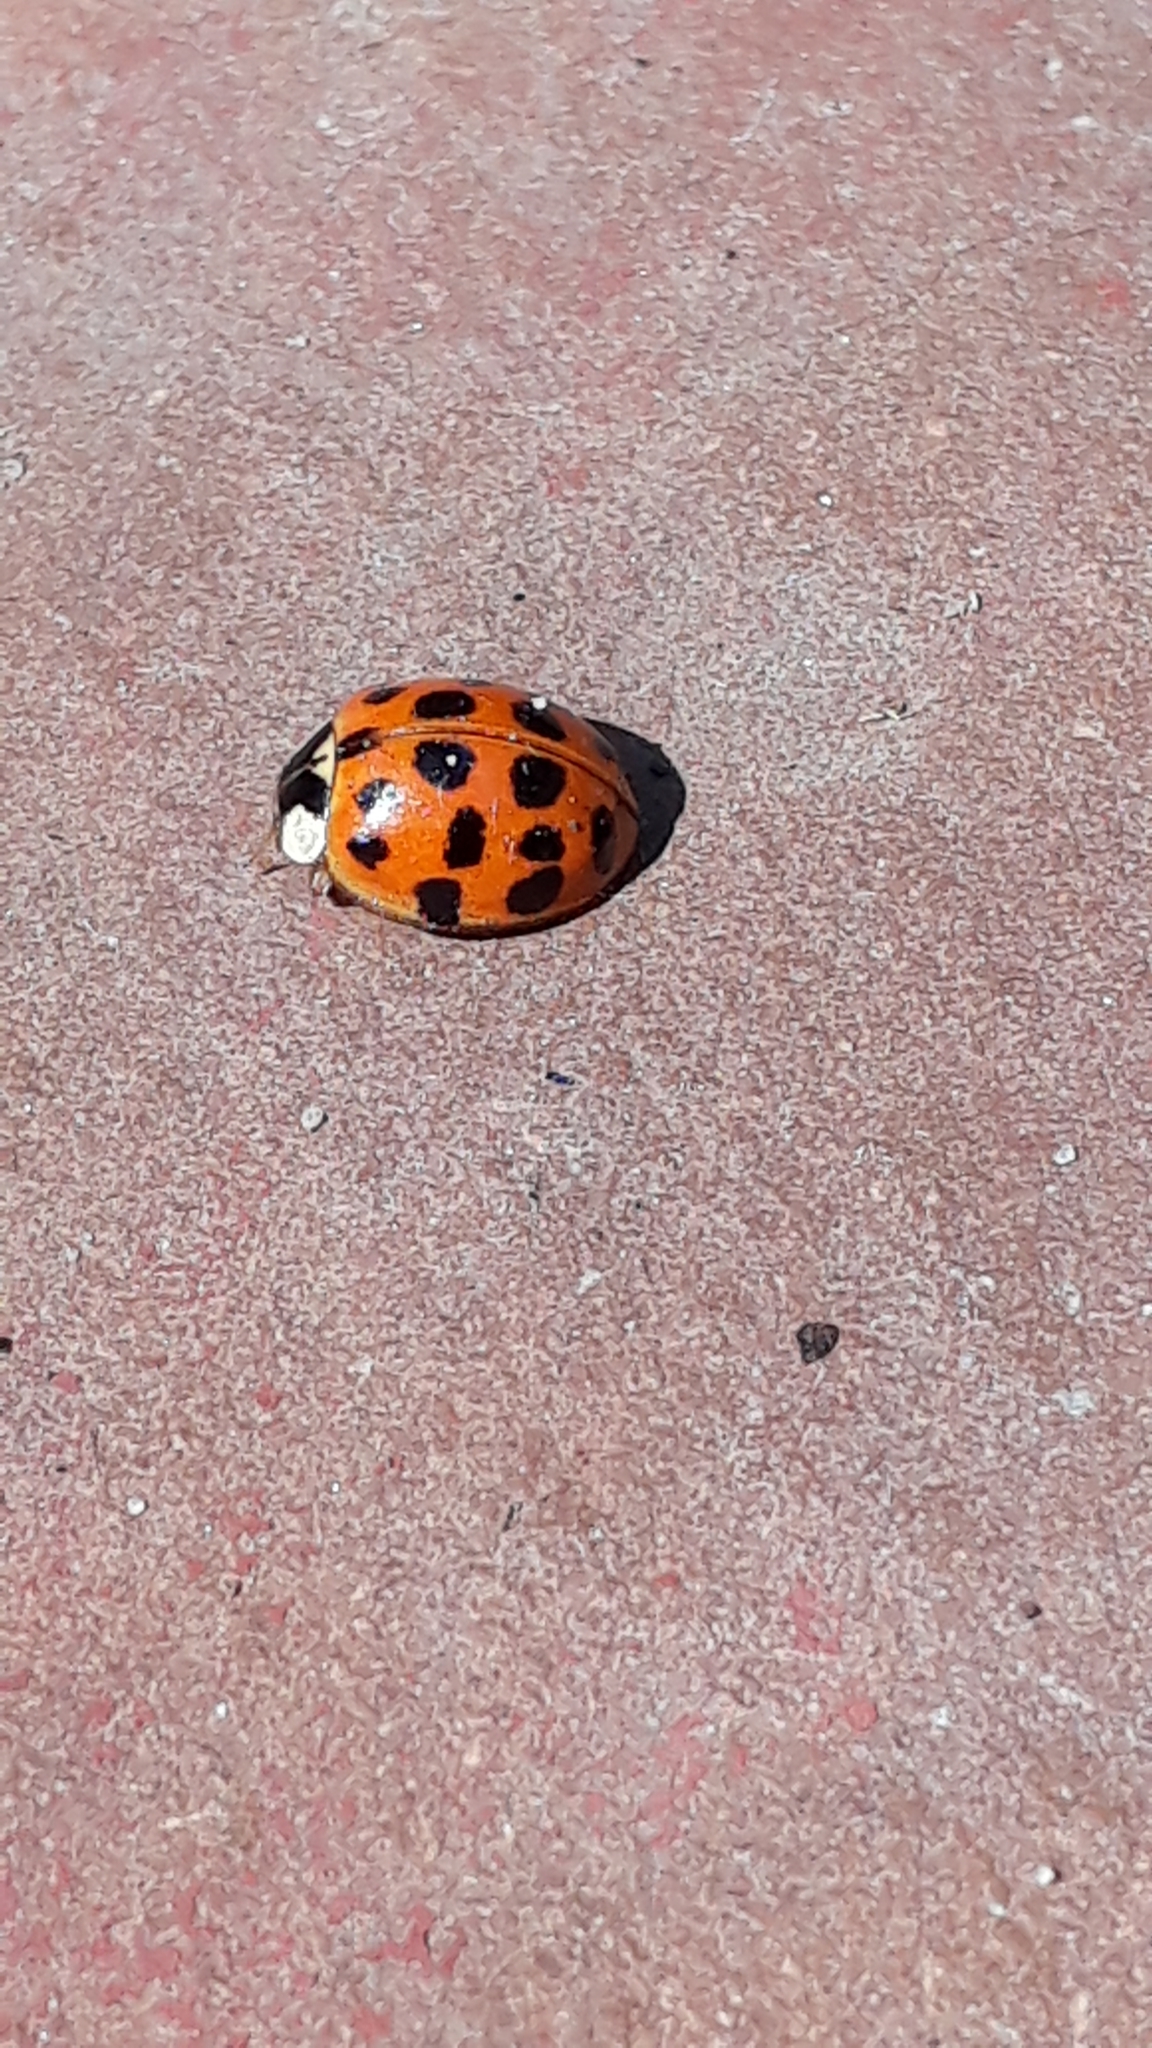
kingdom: Animalia
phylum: Arthropoda
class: Insecta
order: Coleoptera
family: Coccinellidae
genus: Harmonia
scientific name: Harmonia axyridis
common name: Harlequin ladybird
